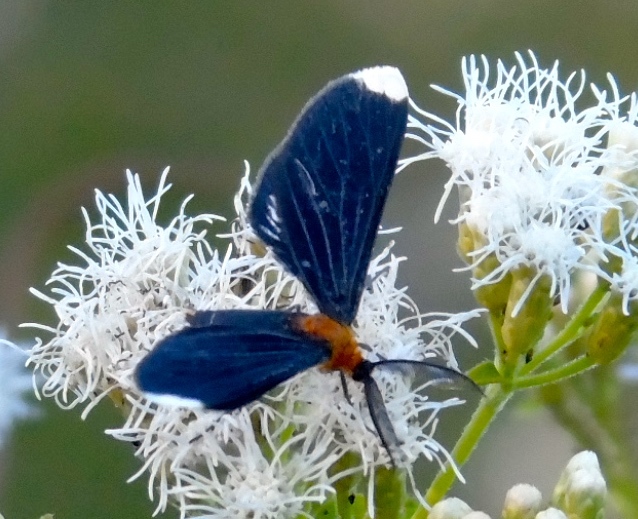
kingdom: Animalia
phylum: Arthropoda
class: Insecta
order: Lepidoptera
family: Geometridae
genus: Melanchroia
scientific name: Melanchroia chephise
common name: White-tipped black
